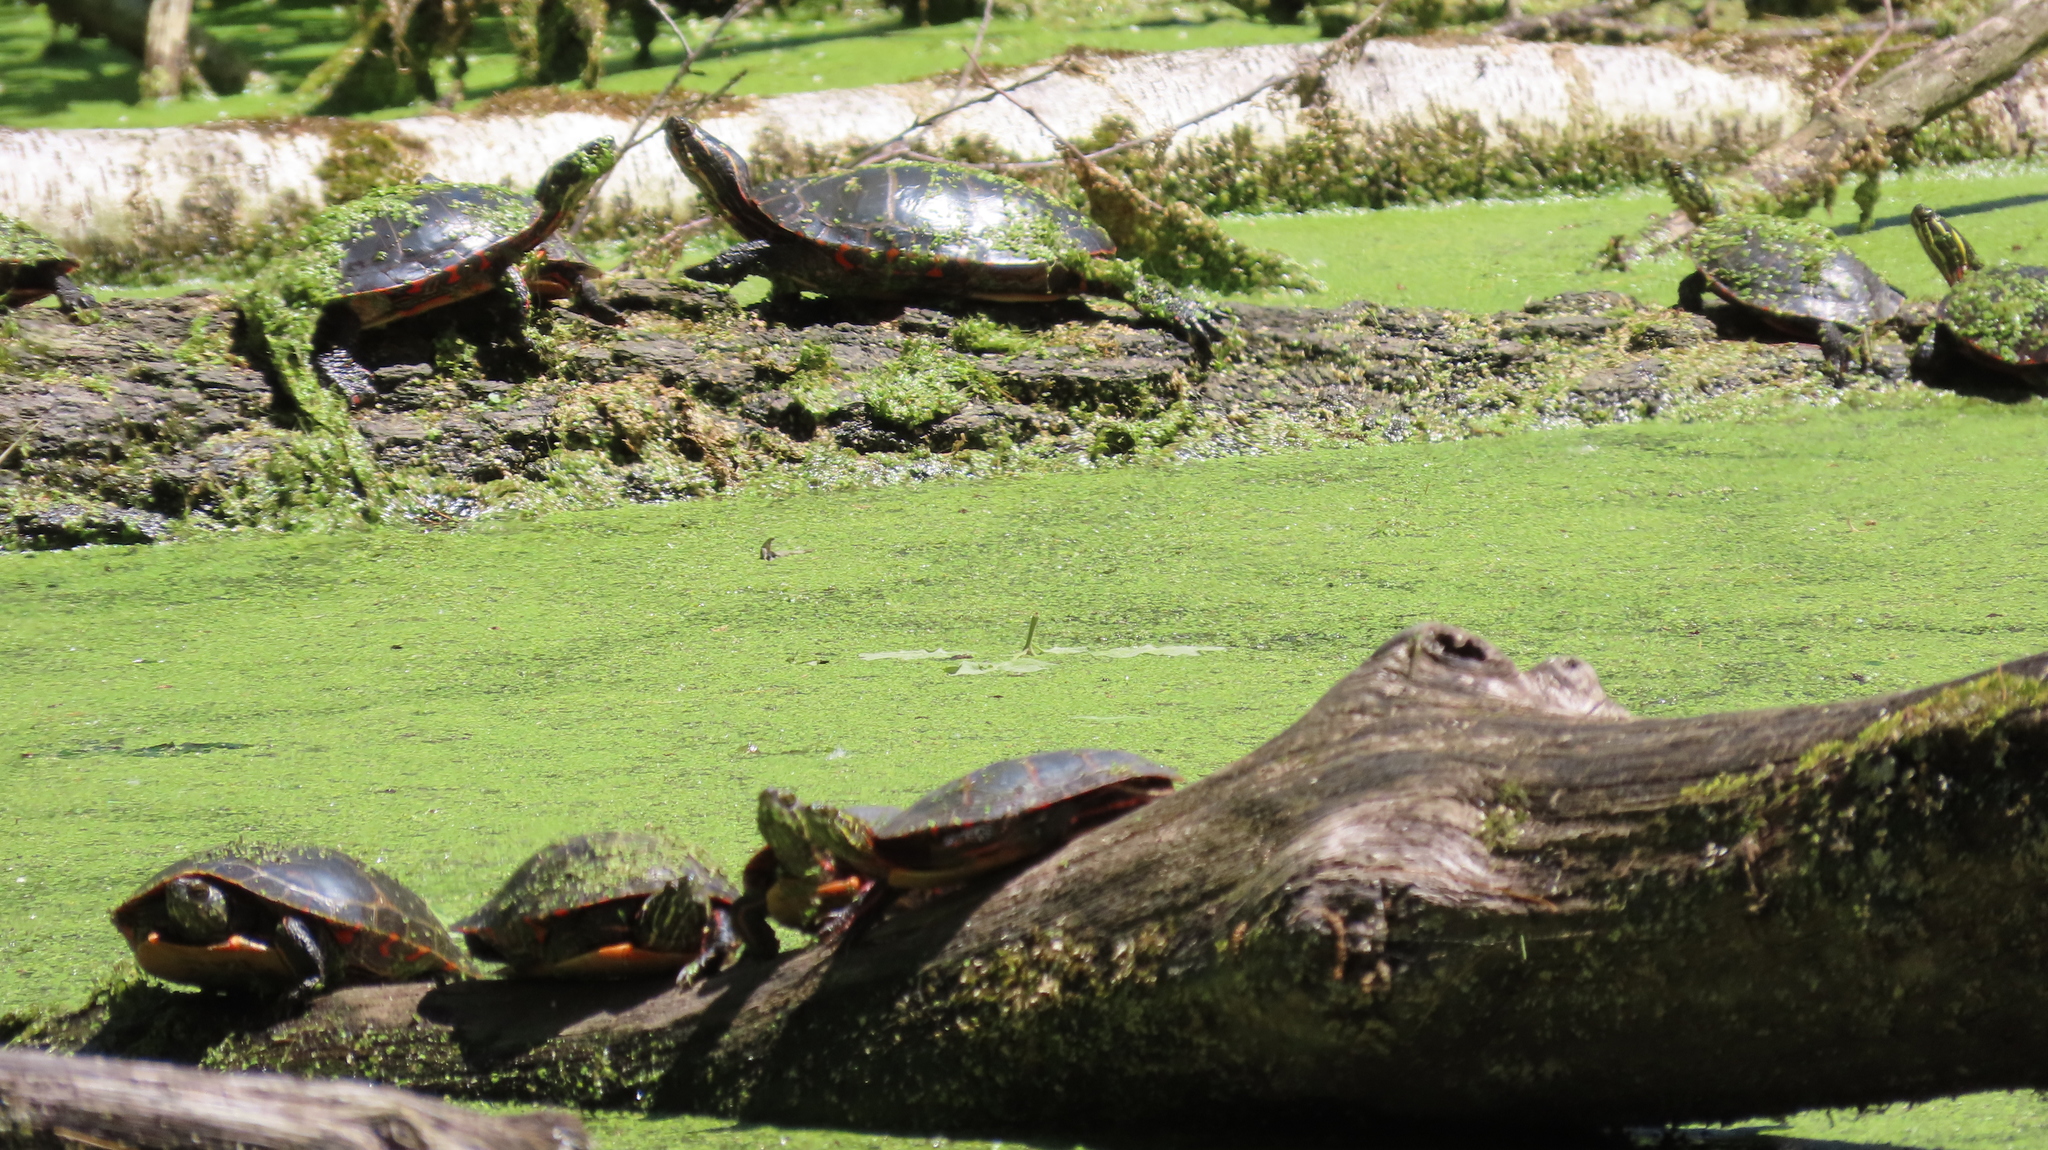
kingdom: Animalia
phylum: Chordata
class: Testudines
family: Emydidae
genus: Chrysemys
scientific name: Chrysemys picta
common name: Painted turtle
